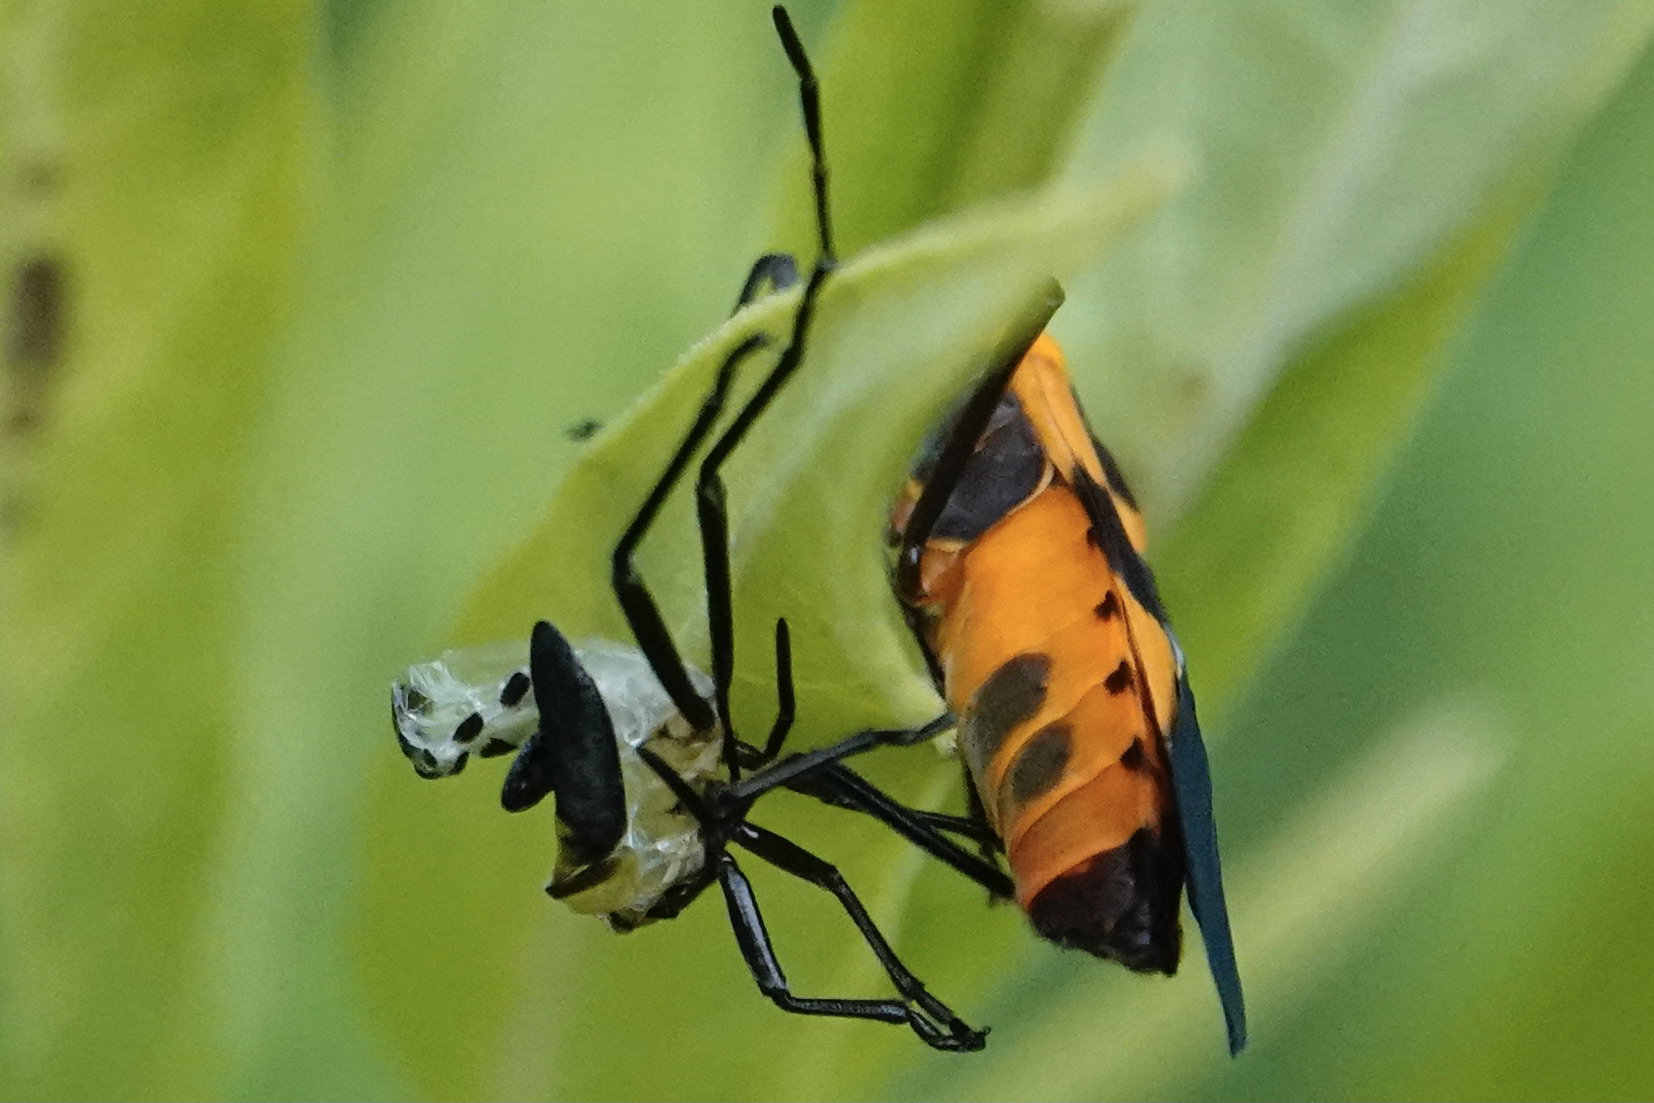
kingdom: Animalia
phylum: Arthropoda
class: Insecta
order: Hemiptera
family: Lygaeidae
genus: Oncopeltus
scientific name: Oncopeltus fasciatus
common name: Large milkweed bug
